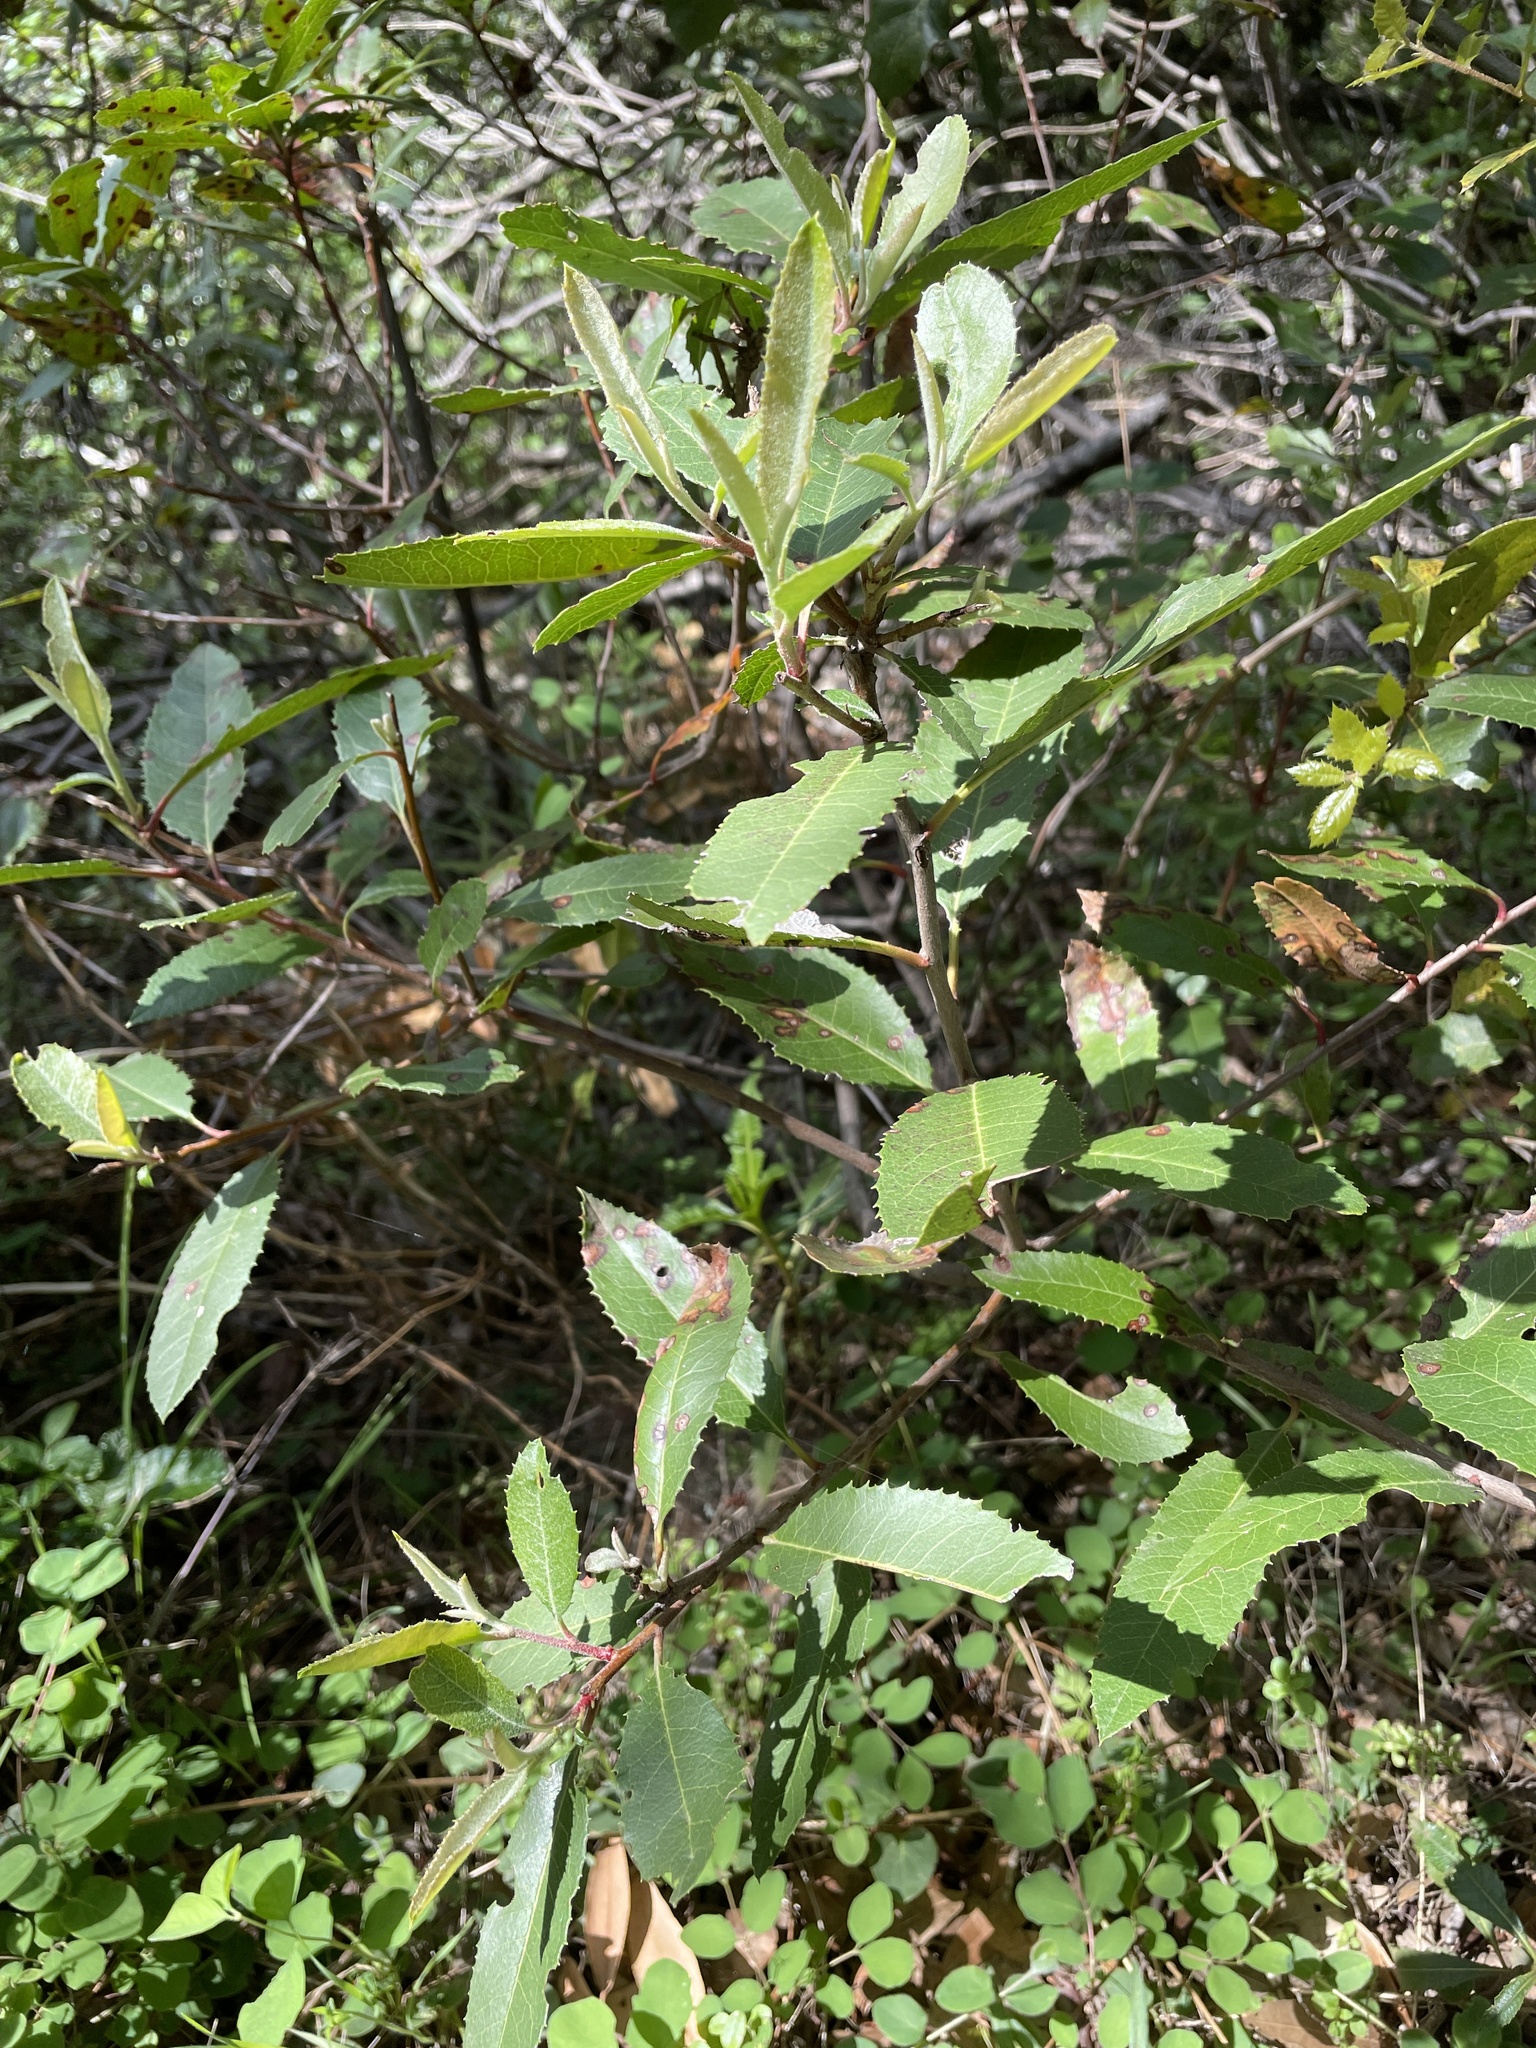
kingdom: Plantae
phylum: Tracheophyta
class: Magnoliopsida
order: Rosales
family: Rosaceae
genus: Heteromeles
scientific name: Heteromeles arbutifolia
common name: California-holly
